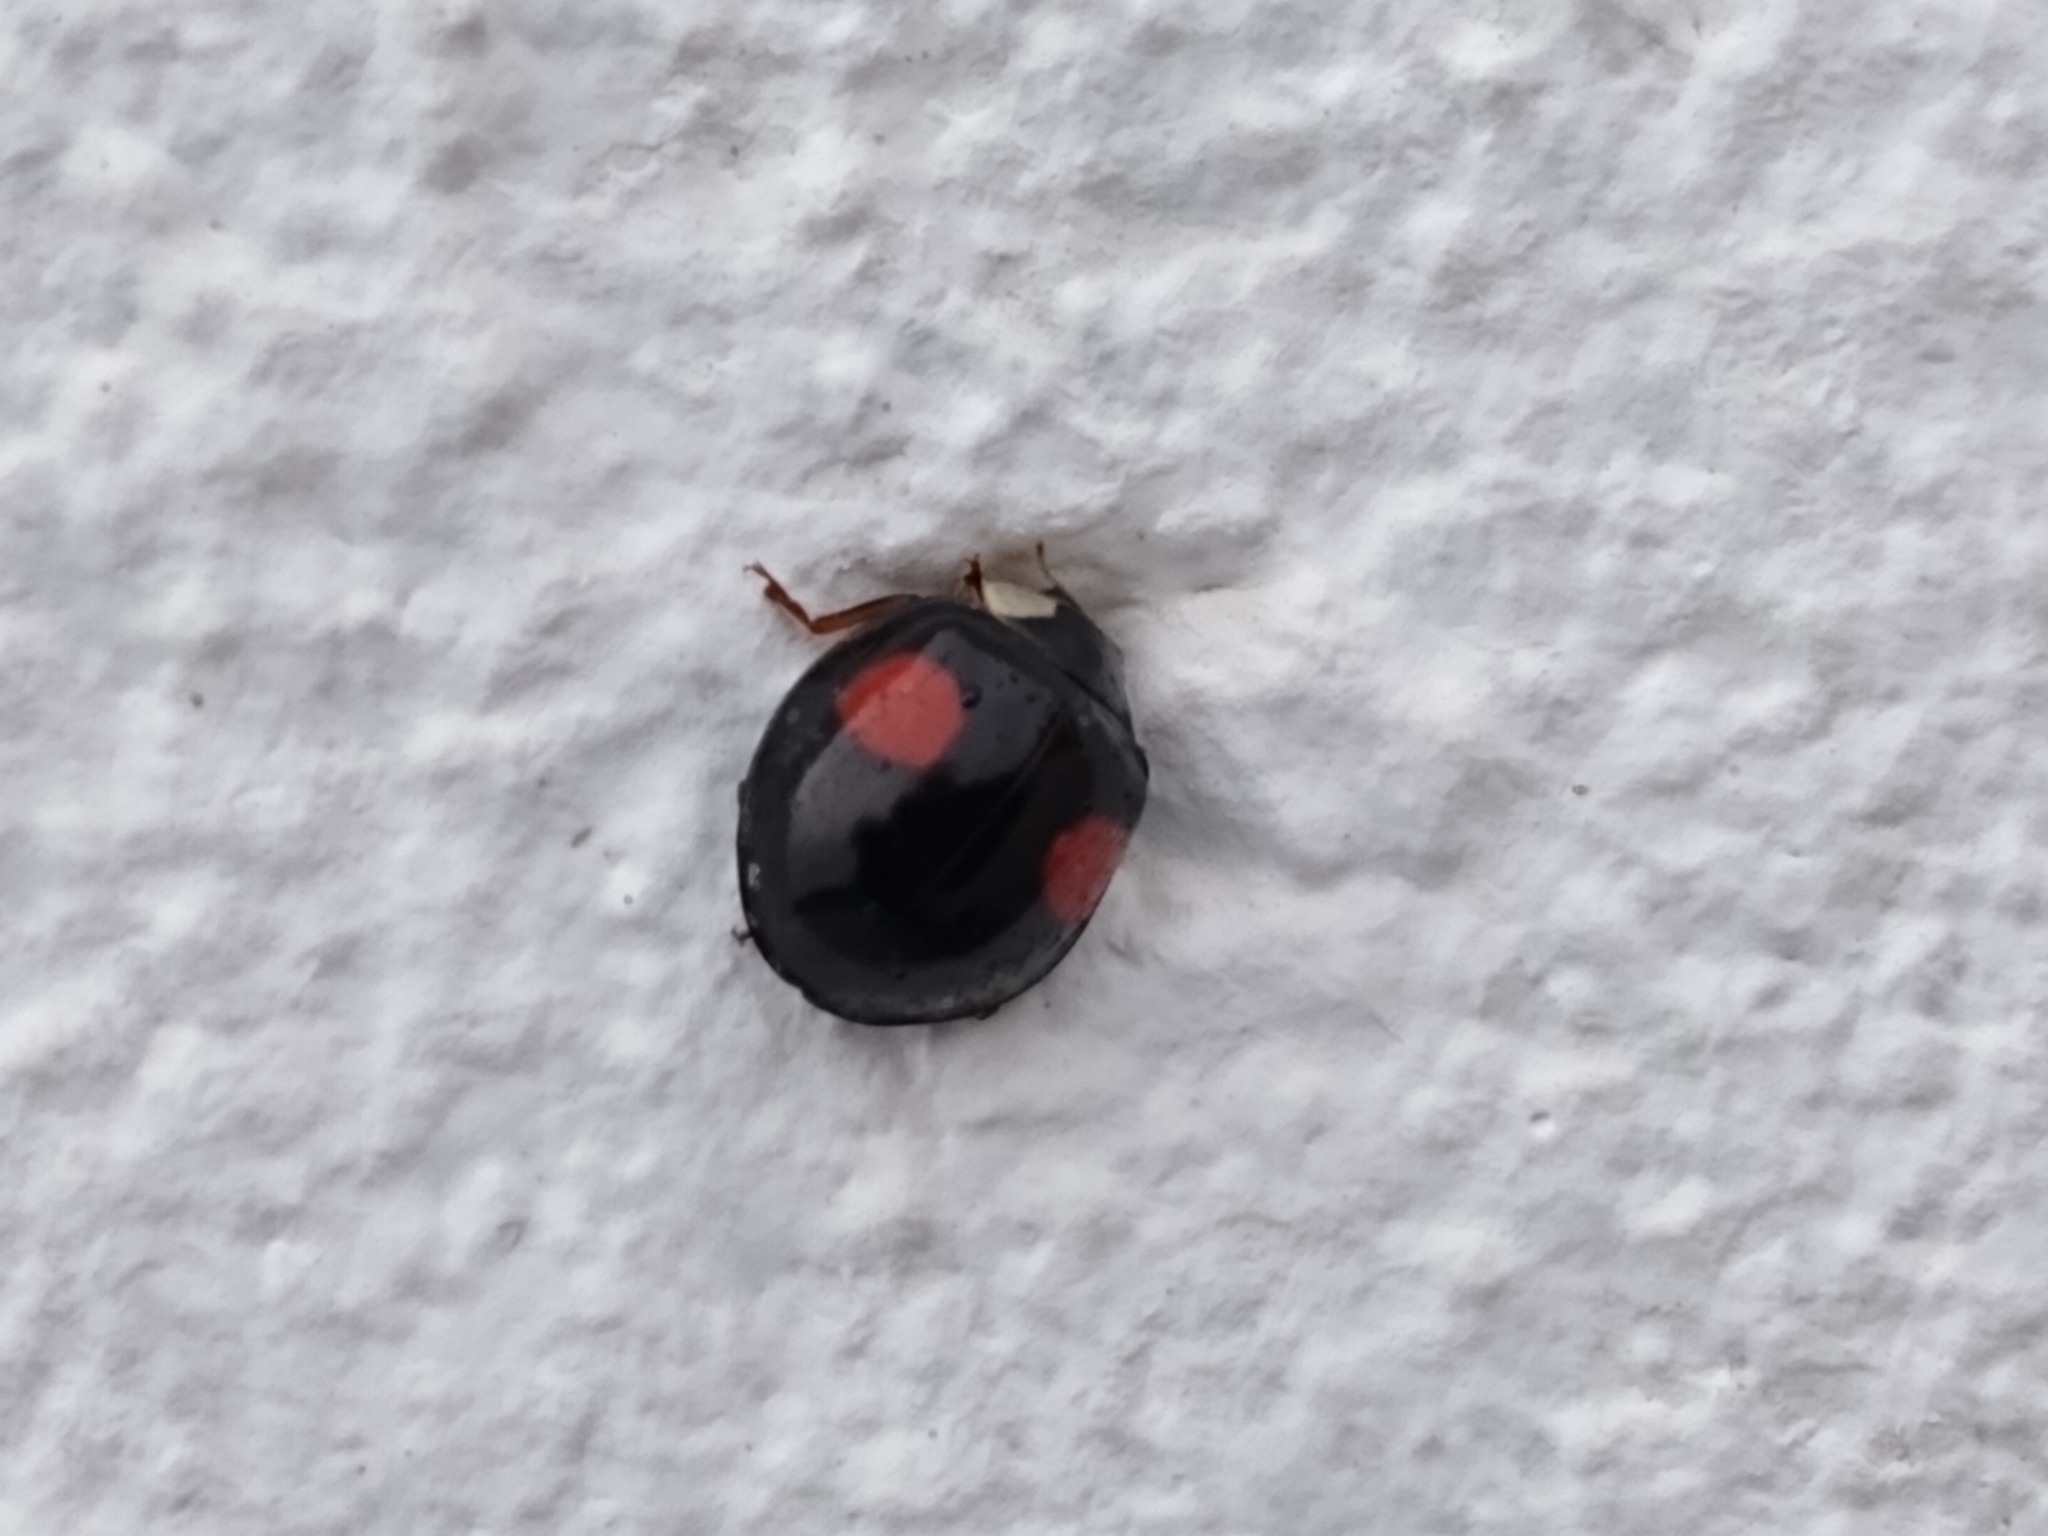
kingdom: Animalia
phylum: Arthropoda
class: Insecta
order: Coleoptera
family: Coccinellidae
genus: Harmonia
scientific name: Harmonia axyridis
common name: Harlequin ladybird
